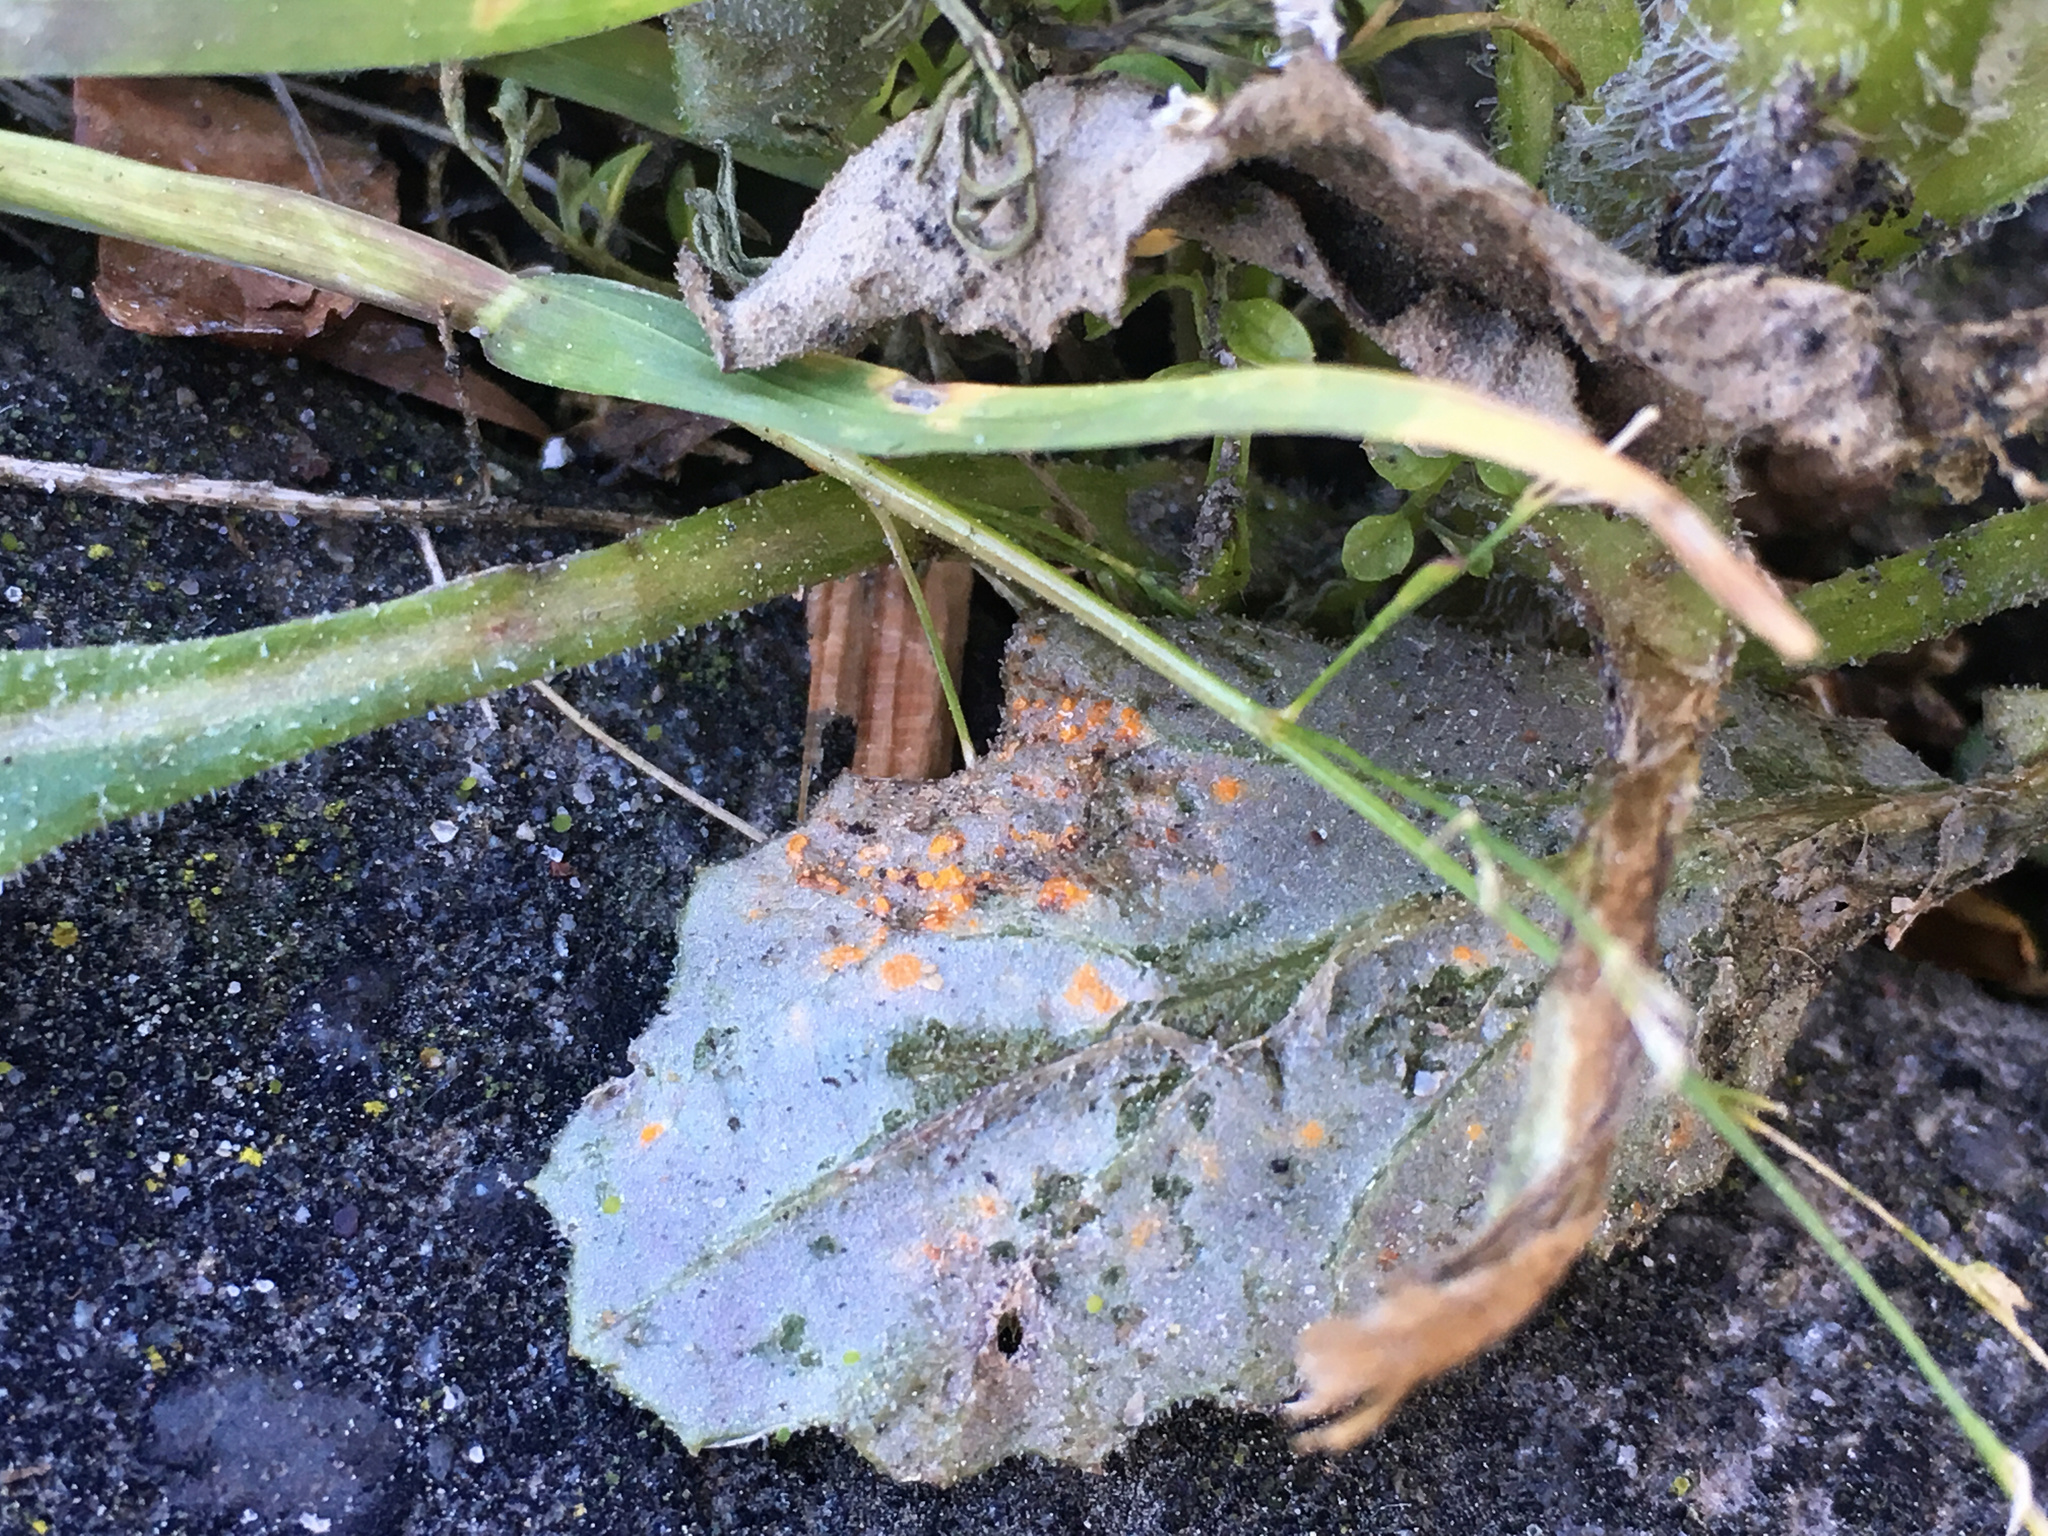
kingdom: Fungi
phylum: Basidiomycota
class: Pucciniomycetes
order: Pucciniales
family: Coleosporiaceae
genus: Coleosporium
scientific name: Coleosporium tussilaginis
